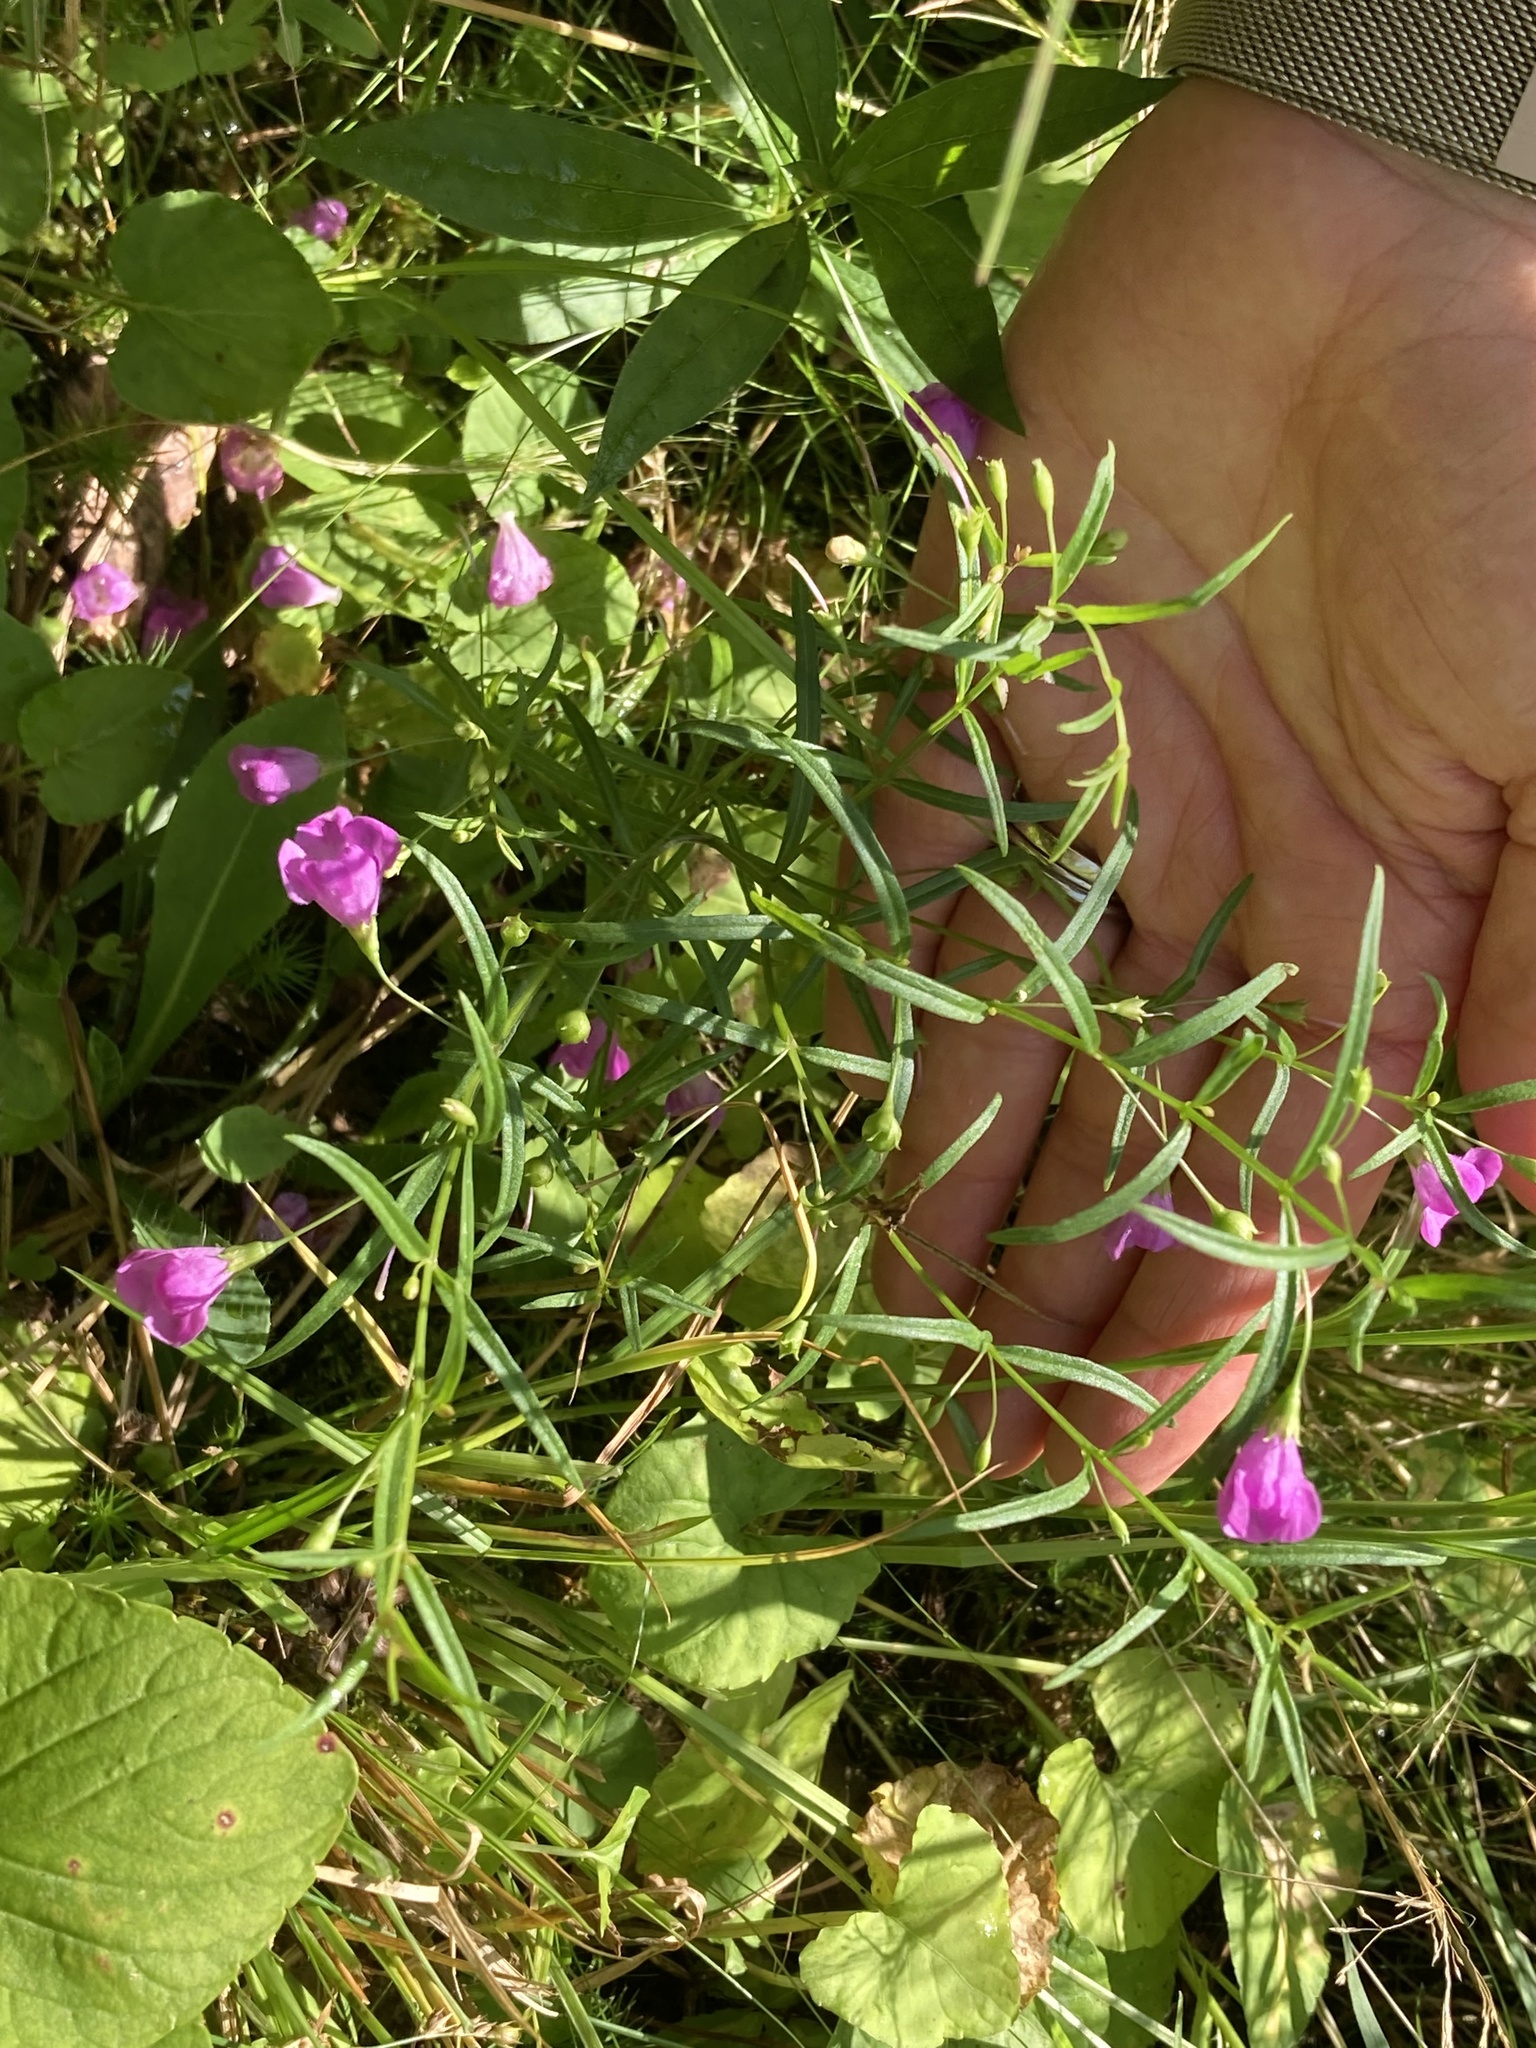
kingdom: Plantae
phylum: Tracheophyta
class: Magnoliopsida
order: Lamiales
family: Orobanchaceae
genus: Agalinis
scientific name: Agalinis tenuifolia
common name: Slender agalinis
